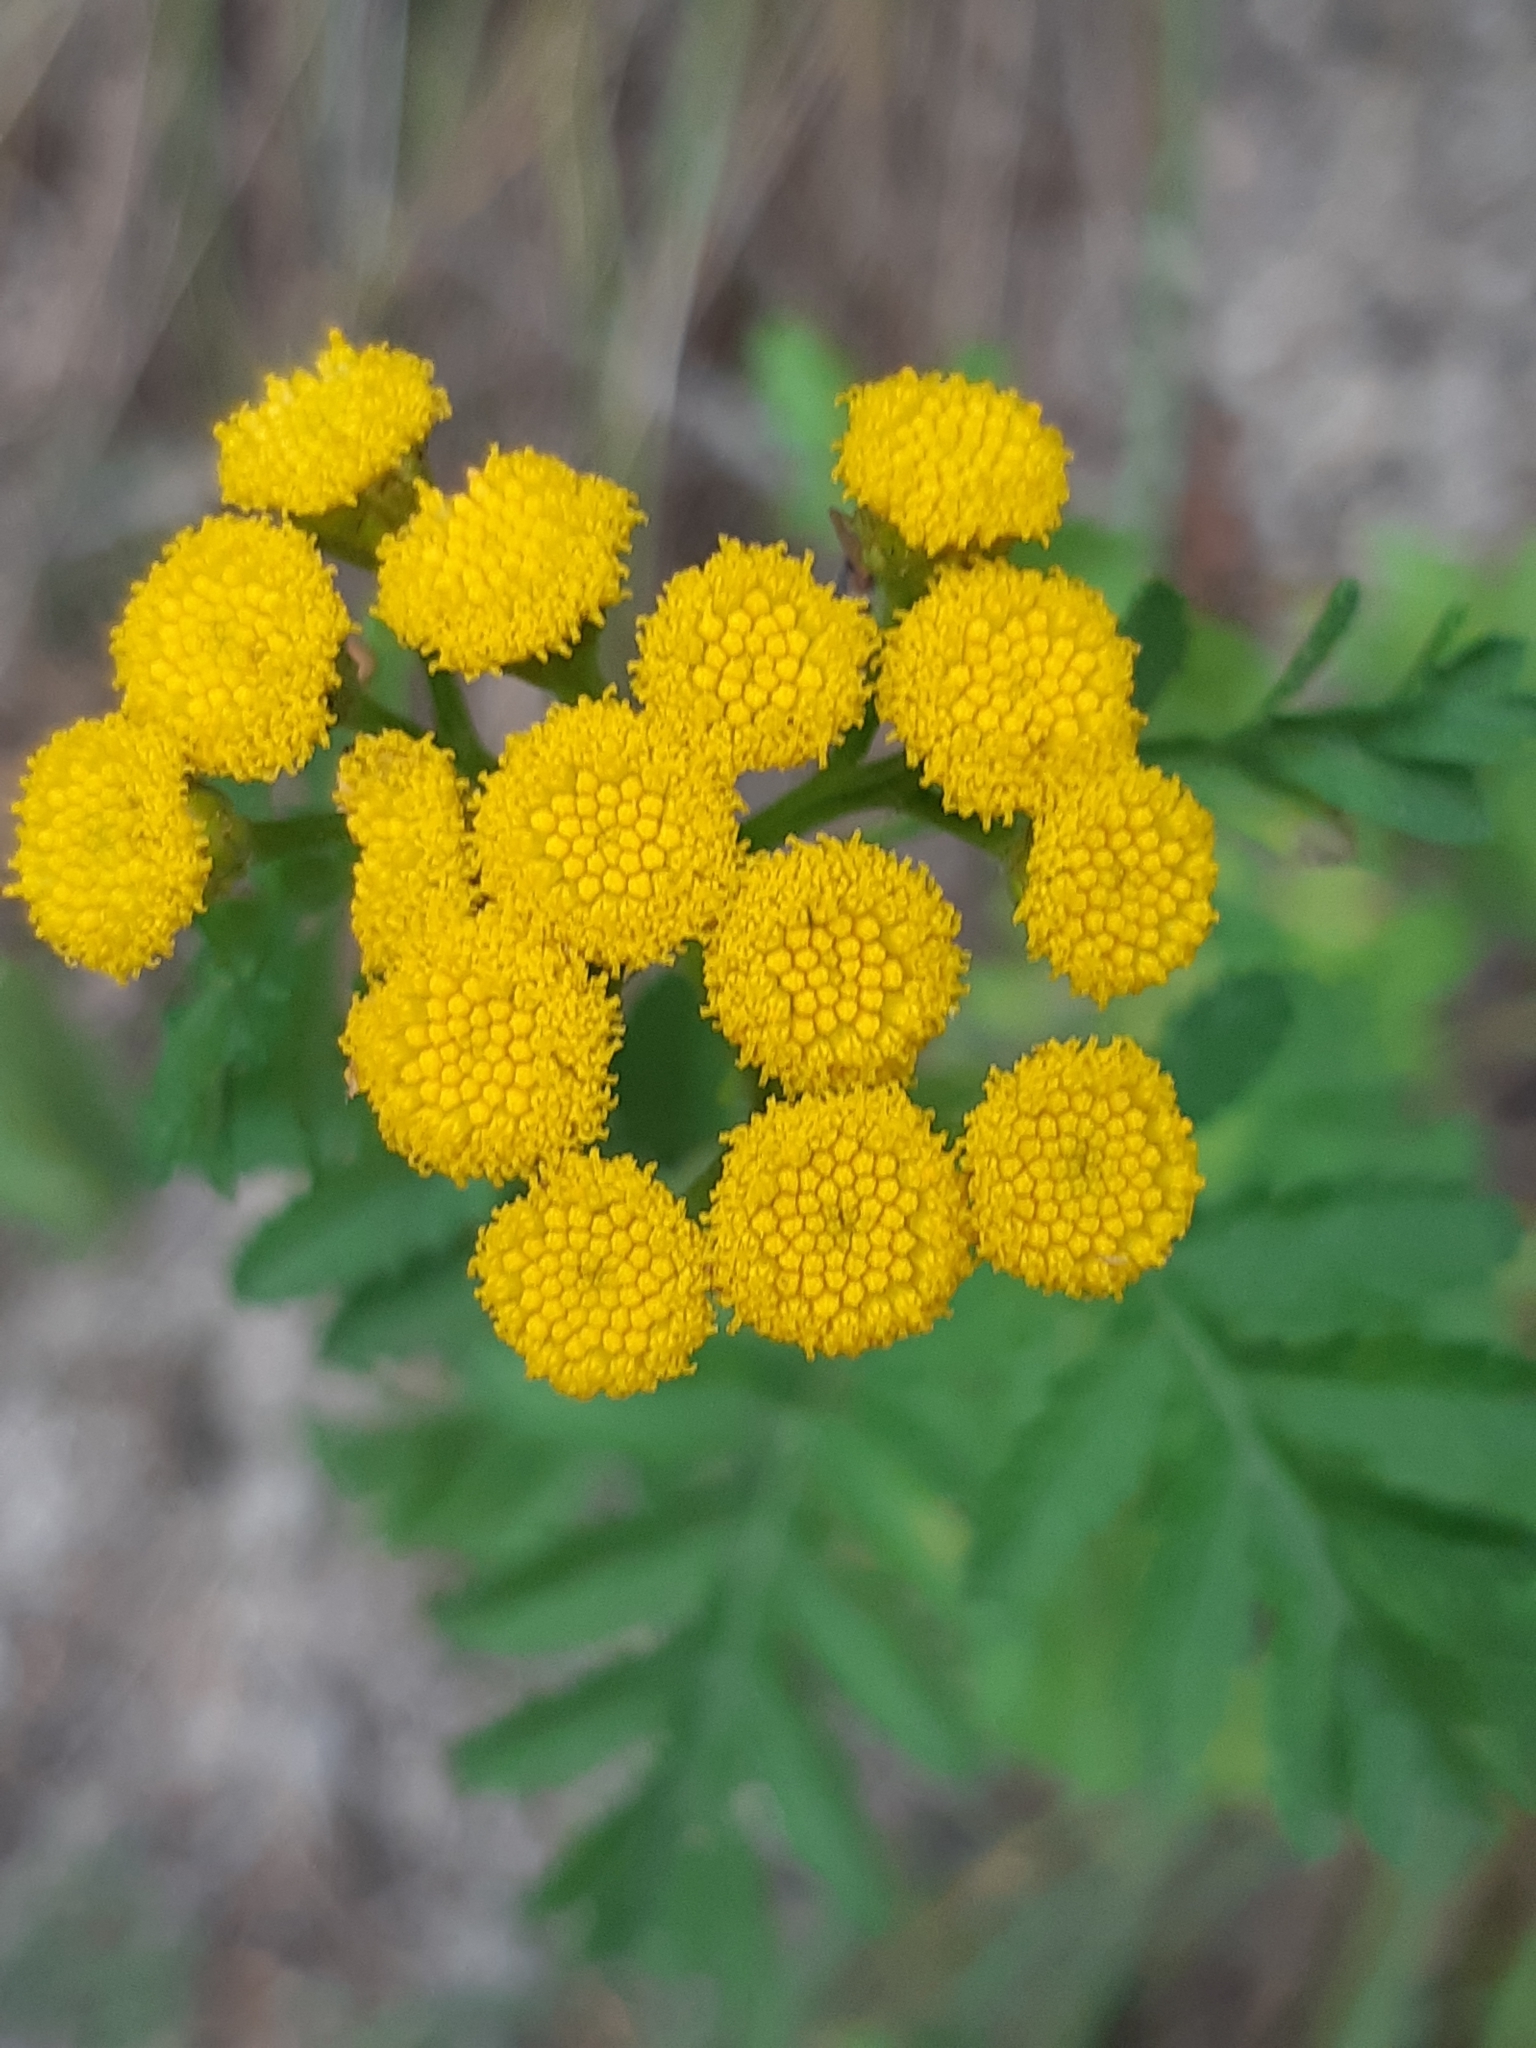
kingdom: Plantae
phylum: Tracheophyta
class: Magnoliopsida
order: Asterales
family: Asteraceae
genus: Tanacetum
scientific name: Tanacetum vulgare
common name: Common tansy
